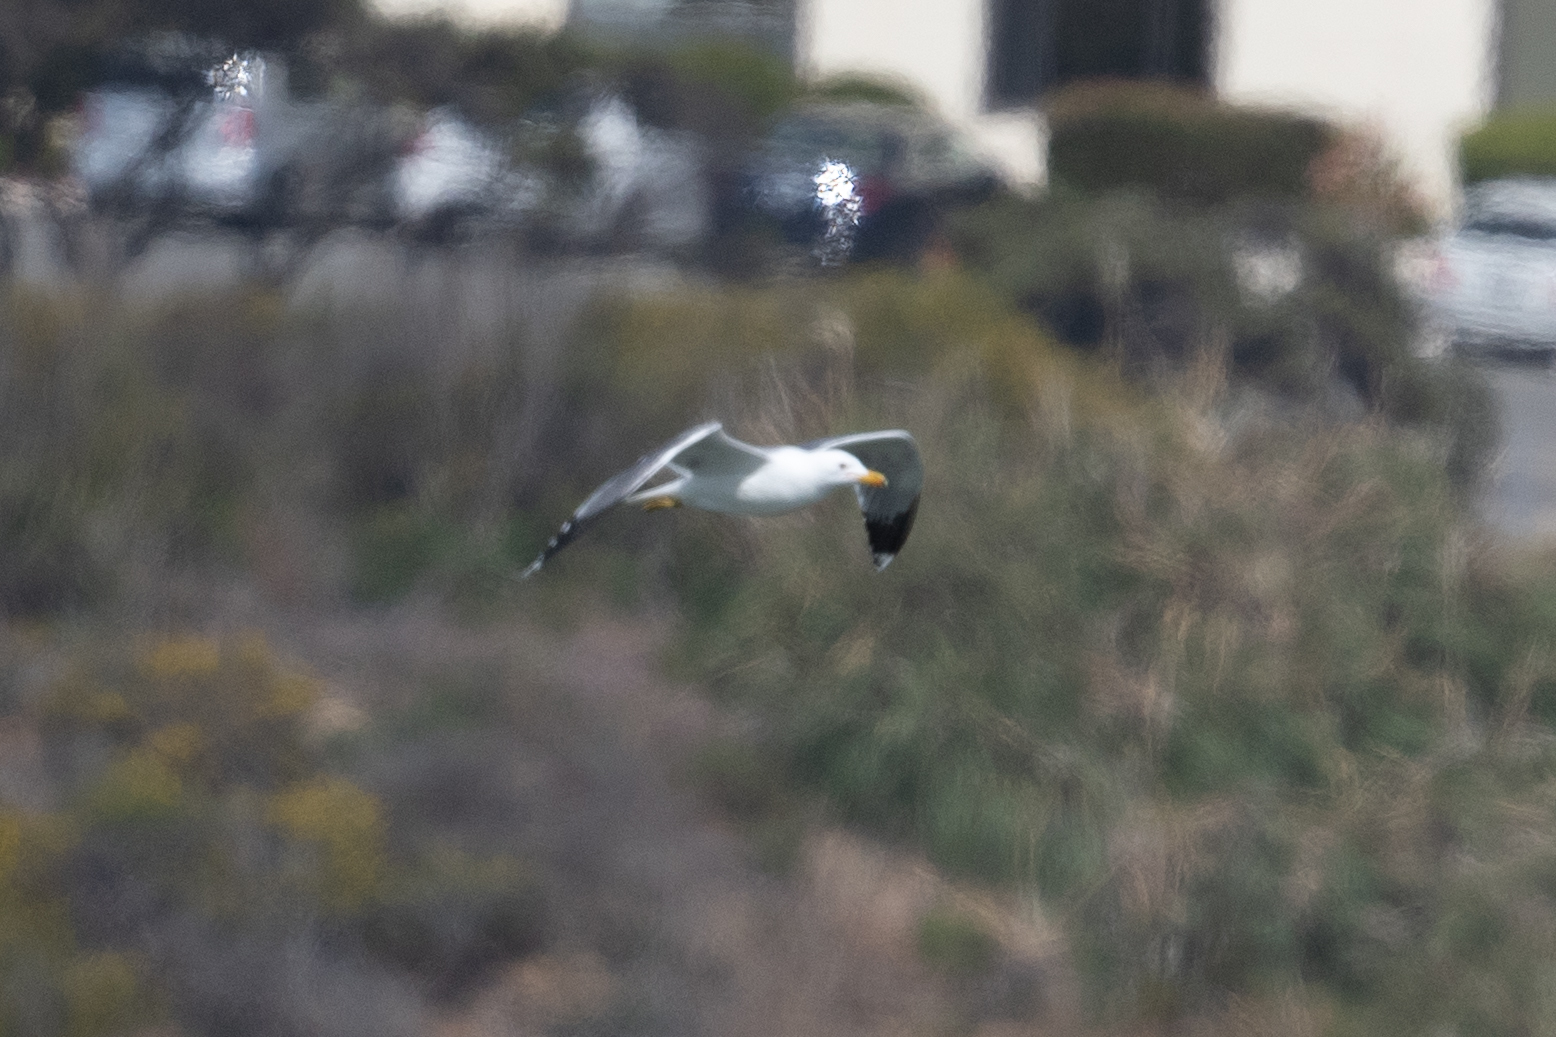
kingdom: Animalia
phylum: Chordata
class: Aves
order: Charadriiformes
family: Laridae
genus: Larus
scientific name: Larus californicus
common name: California gull
